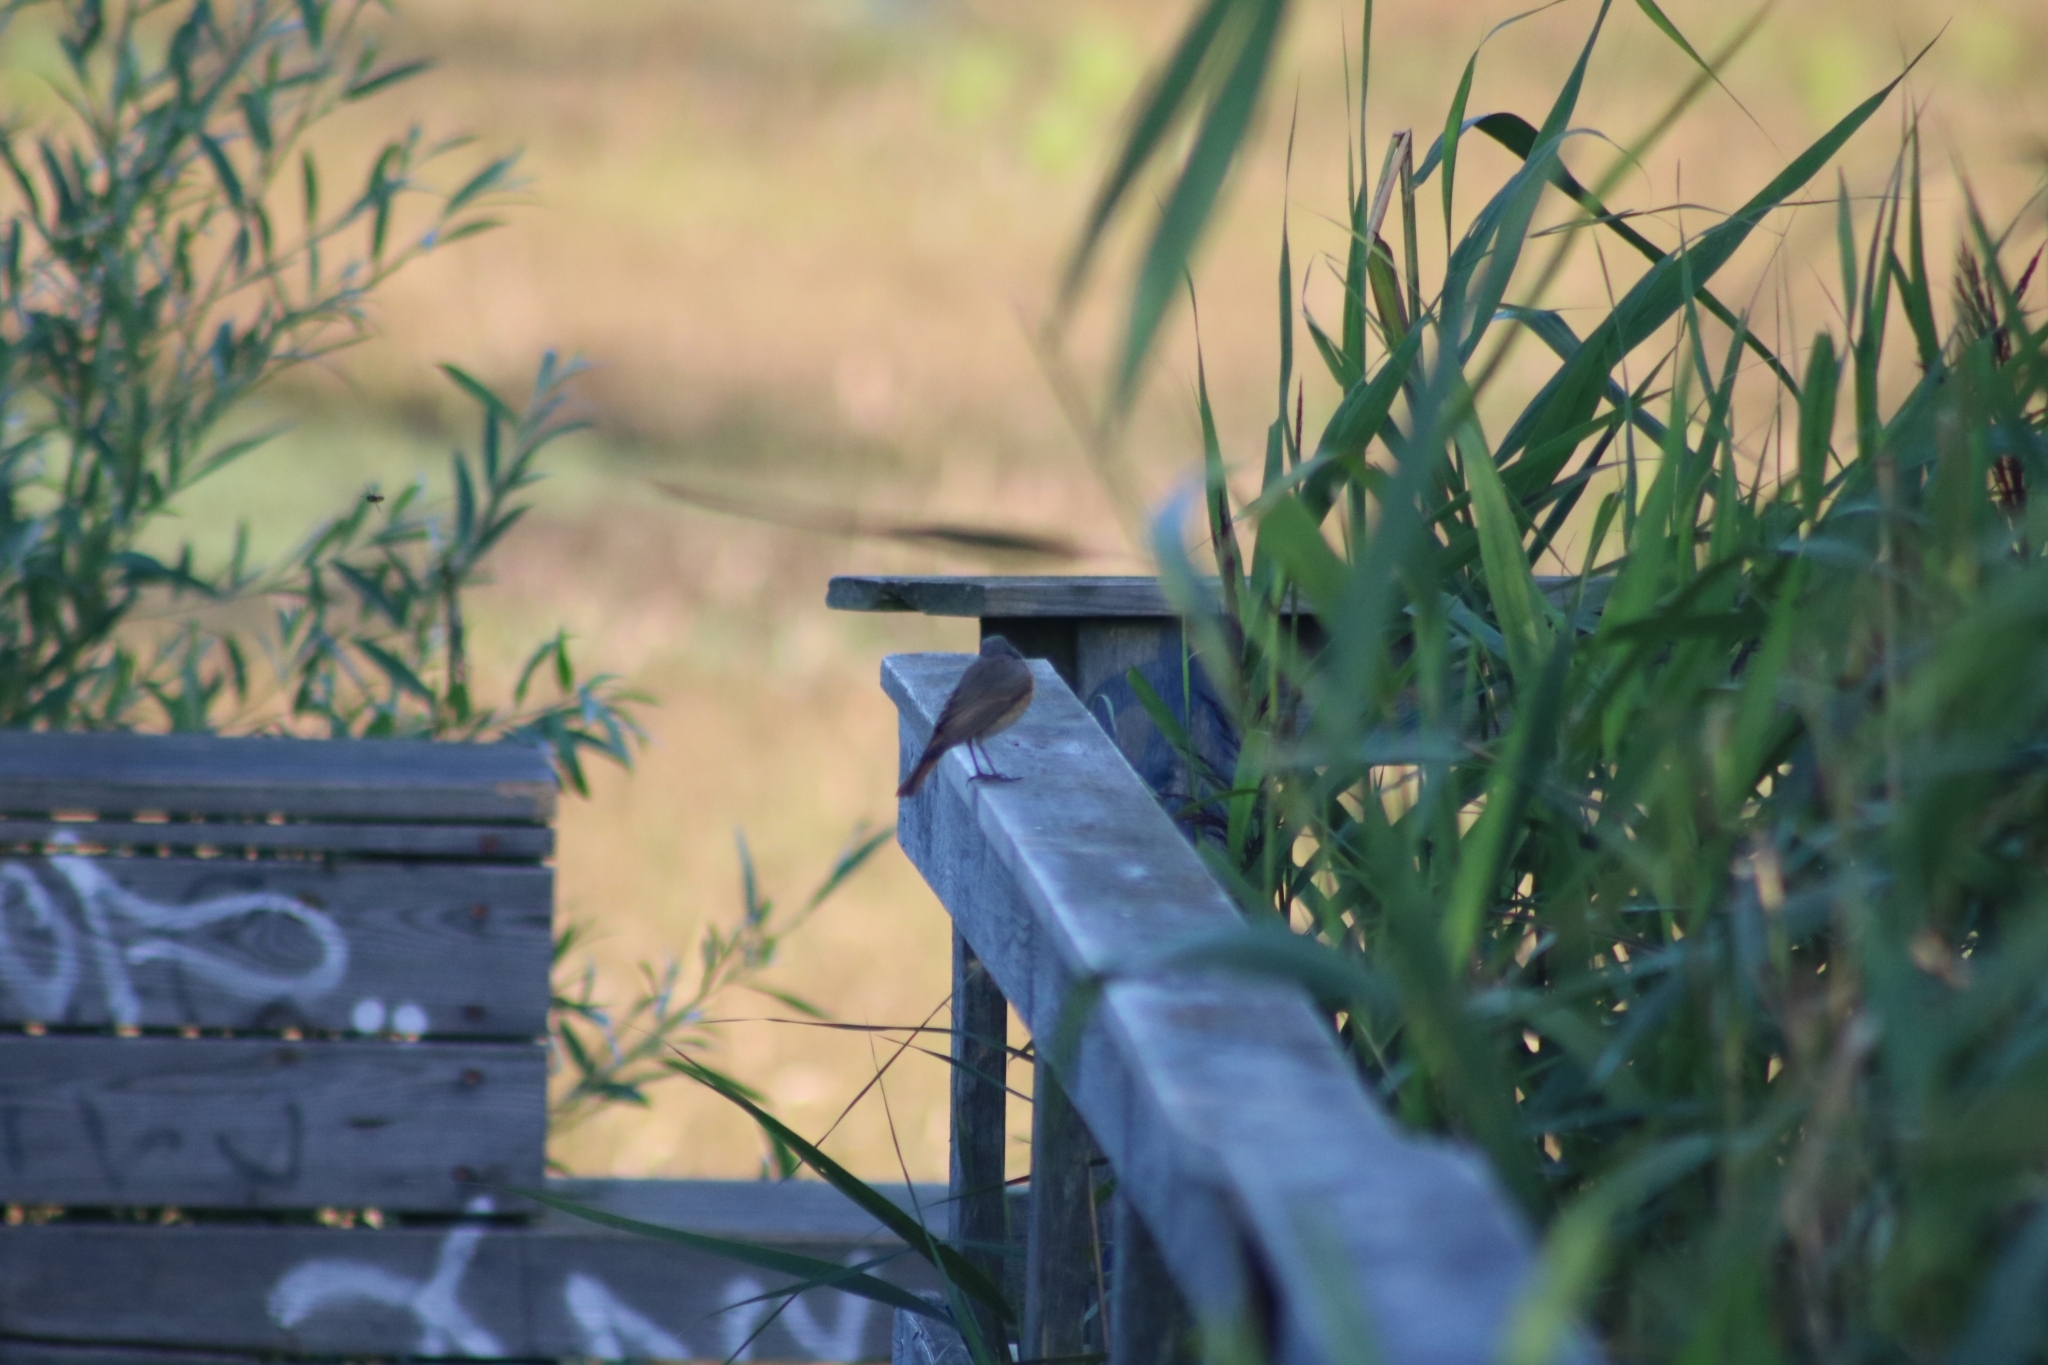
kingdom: Animalia
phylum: Chordata
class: Aves
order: Passeriformes
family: Muscicapidae
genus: Phoenicurus
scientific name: Phoenicurus phoenicurus
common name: Common redstart
